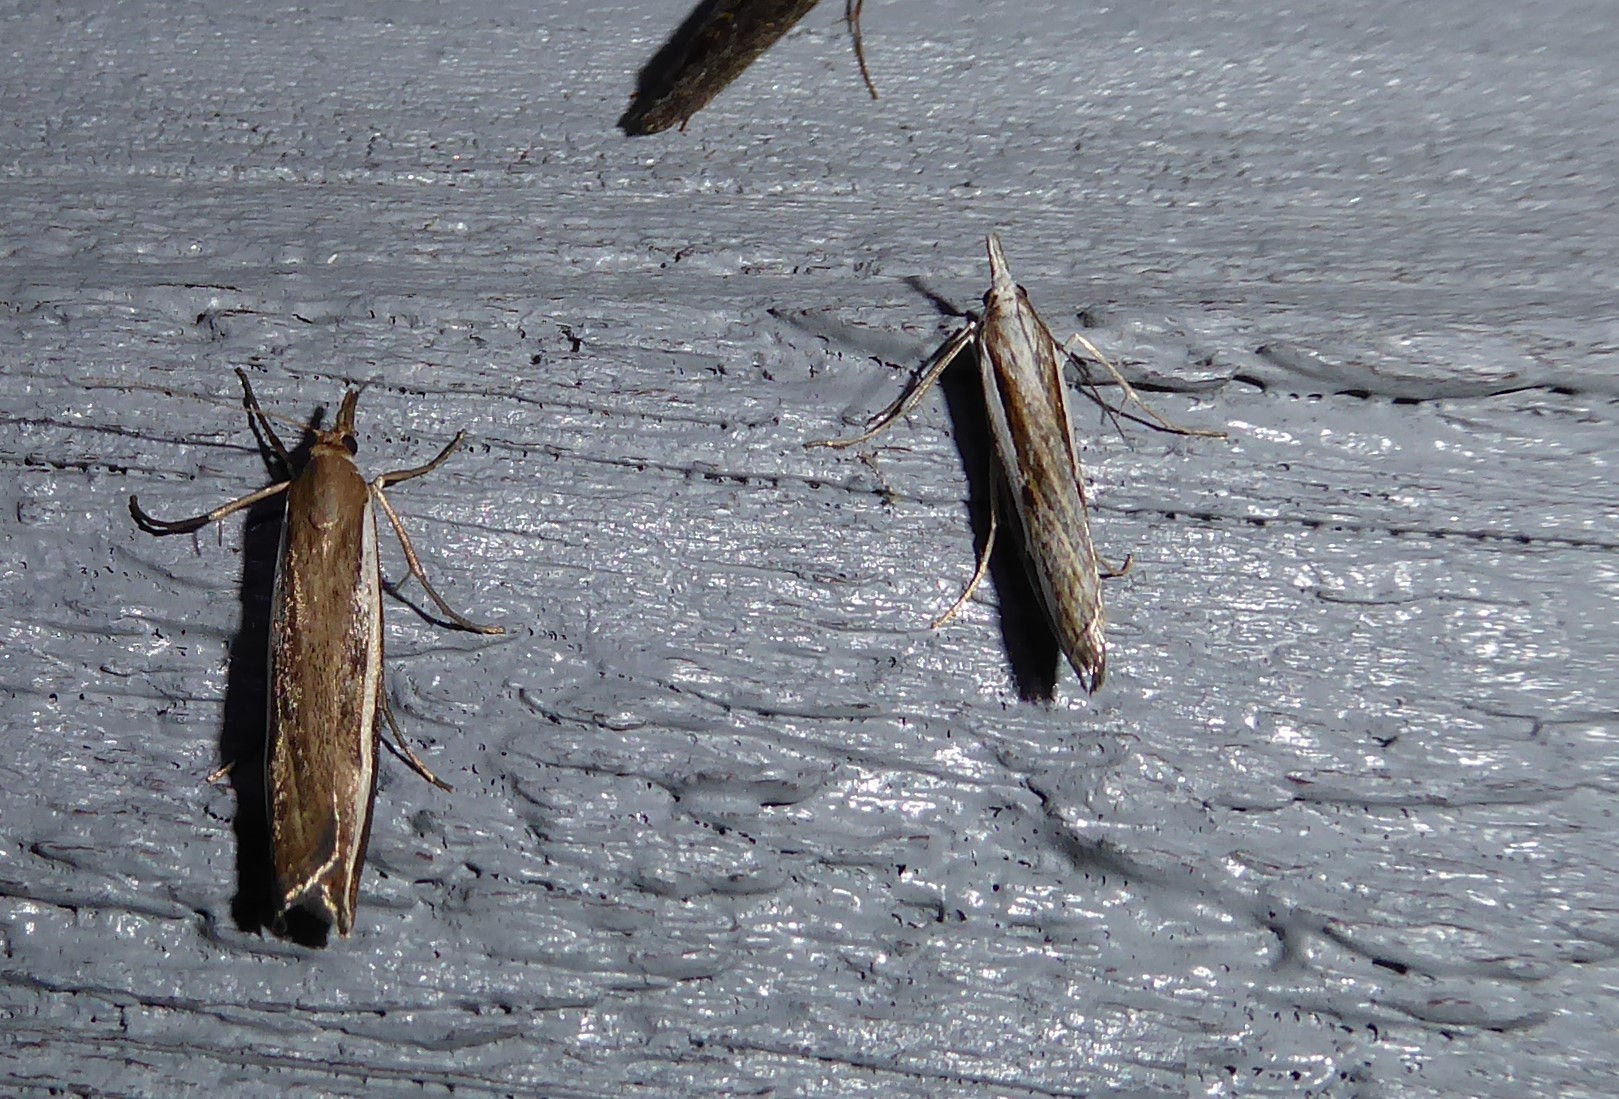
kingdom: Animalia
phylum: Arthropoda
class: Insecta
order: Lepidoptera
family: Crambidae
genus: Orocrambus
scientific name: Orocrambus vittellus
